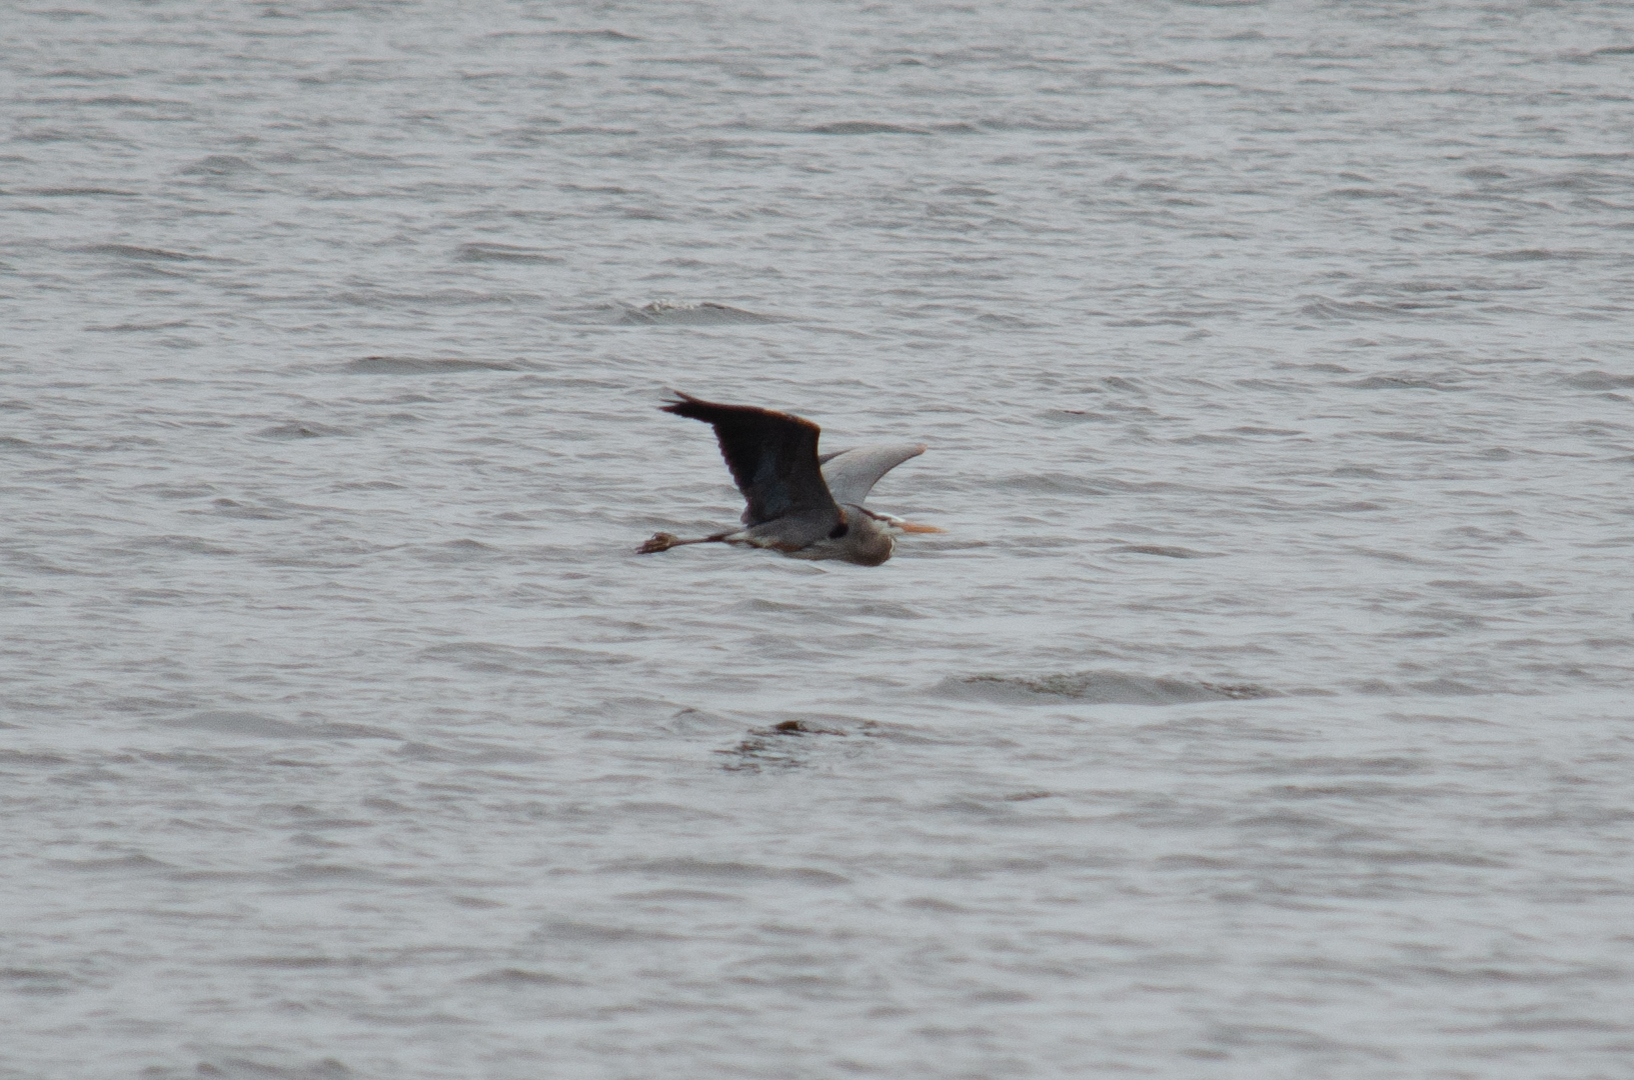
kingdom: Animalia
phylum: Chordata
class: Aves
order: Pelecaniformes
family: Ardeidae
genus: Ardea
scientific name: Ardea herodias
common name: Great blue heron
